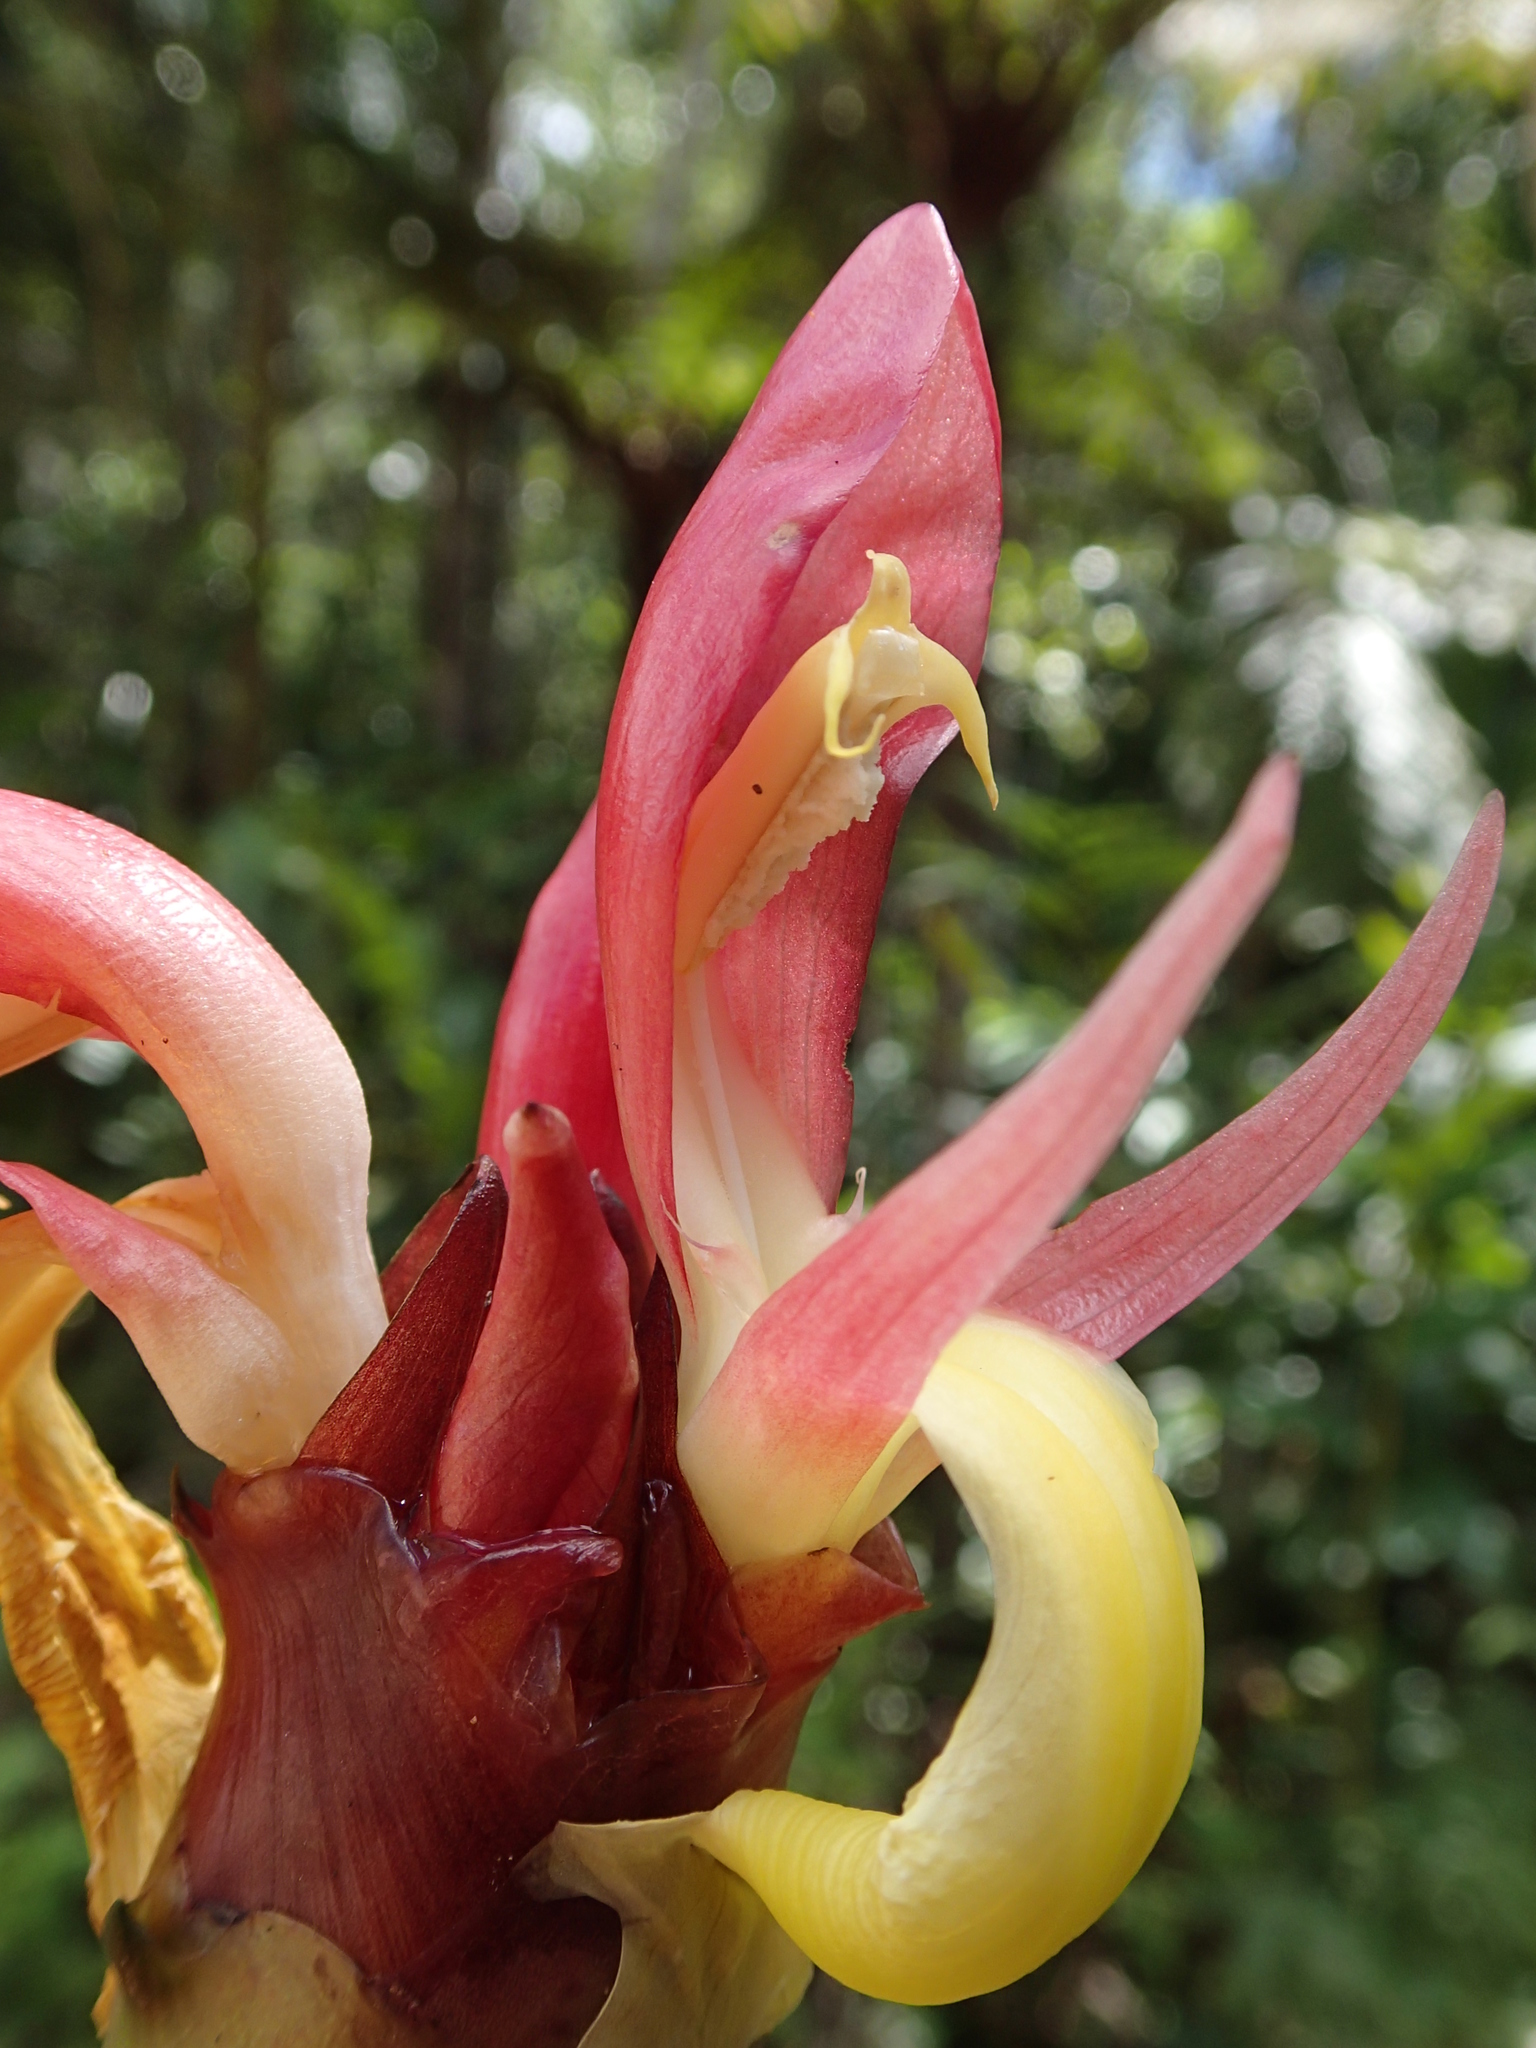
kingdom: Plantae
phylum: Tracheophyta
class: Liliopsida
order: Zingiberales
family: Zingiberaceae
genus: Aframomum
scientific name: Aframomum angustifolium
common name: Guinea grains
